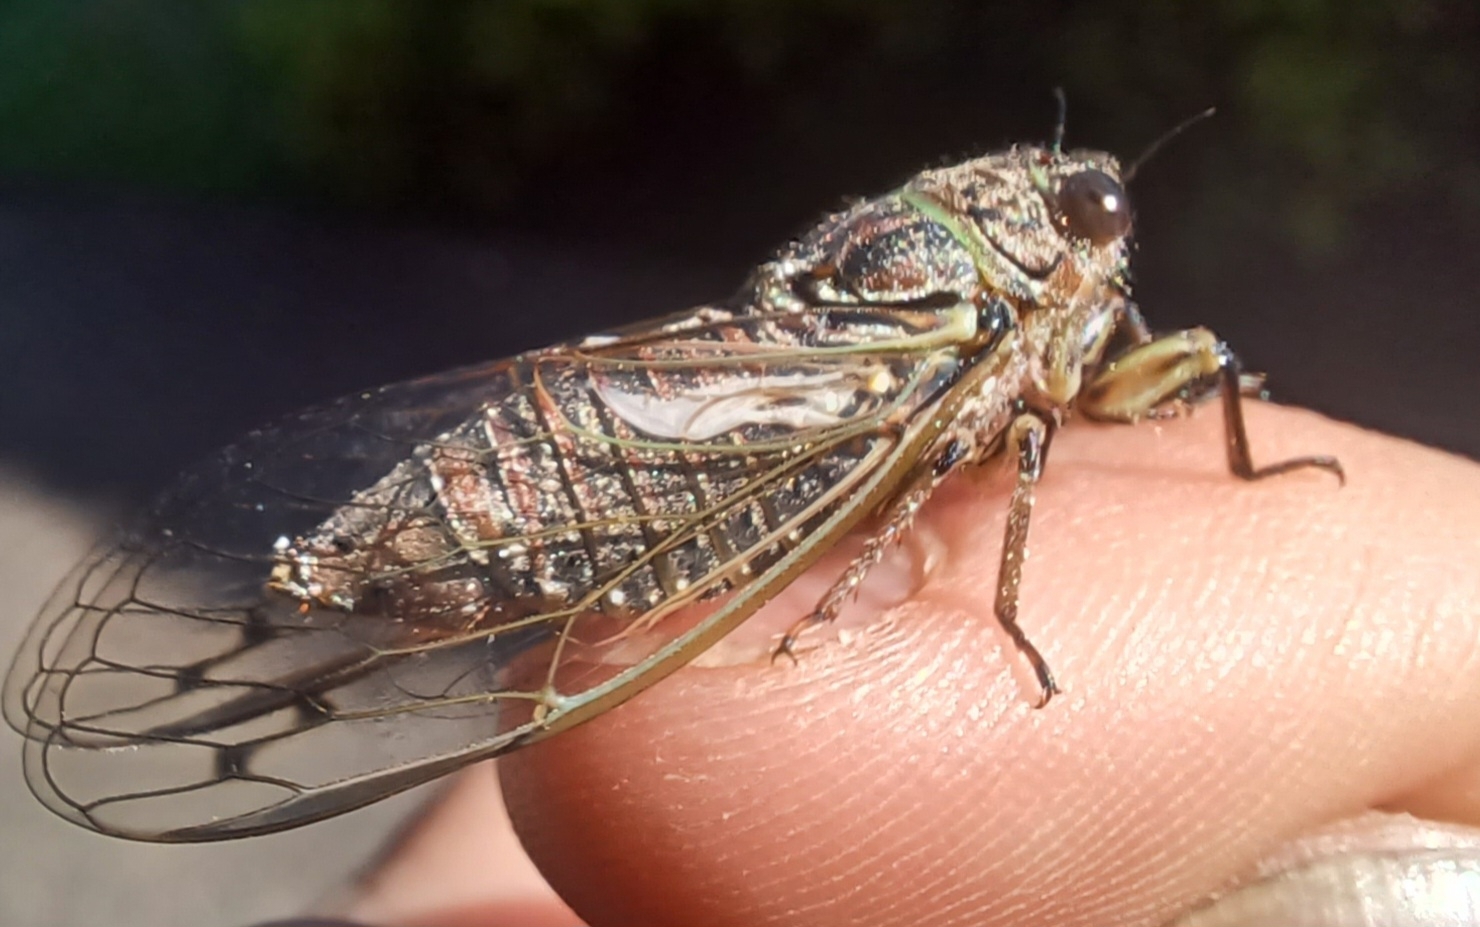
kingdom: Animalia
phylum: Arthropoda
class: Insecta
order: Hemiptera
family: Cicadidae
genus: Gelidea
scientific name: Gelidea torrida
